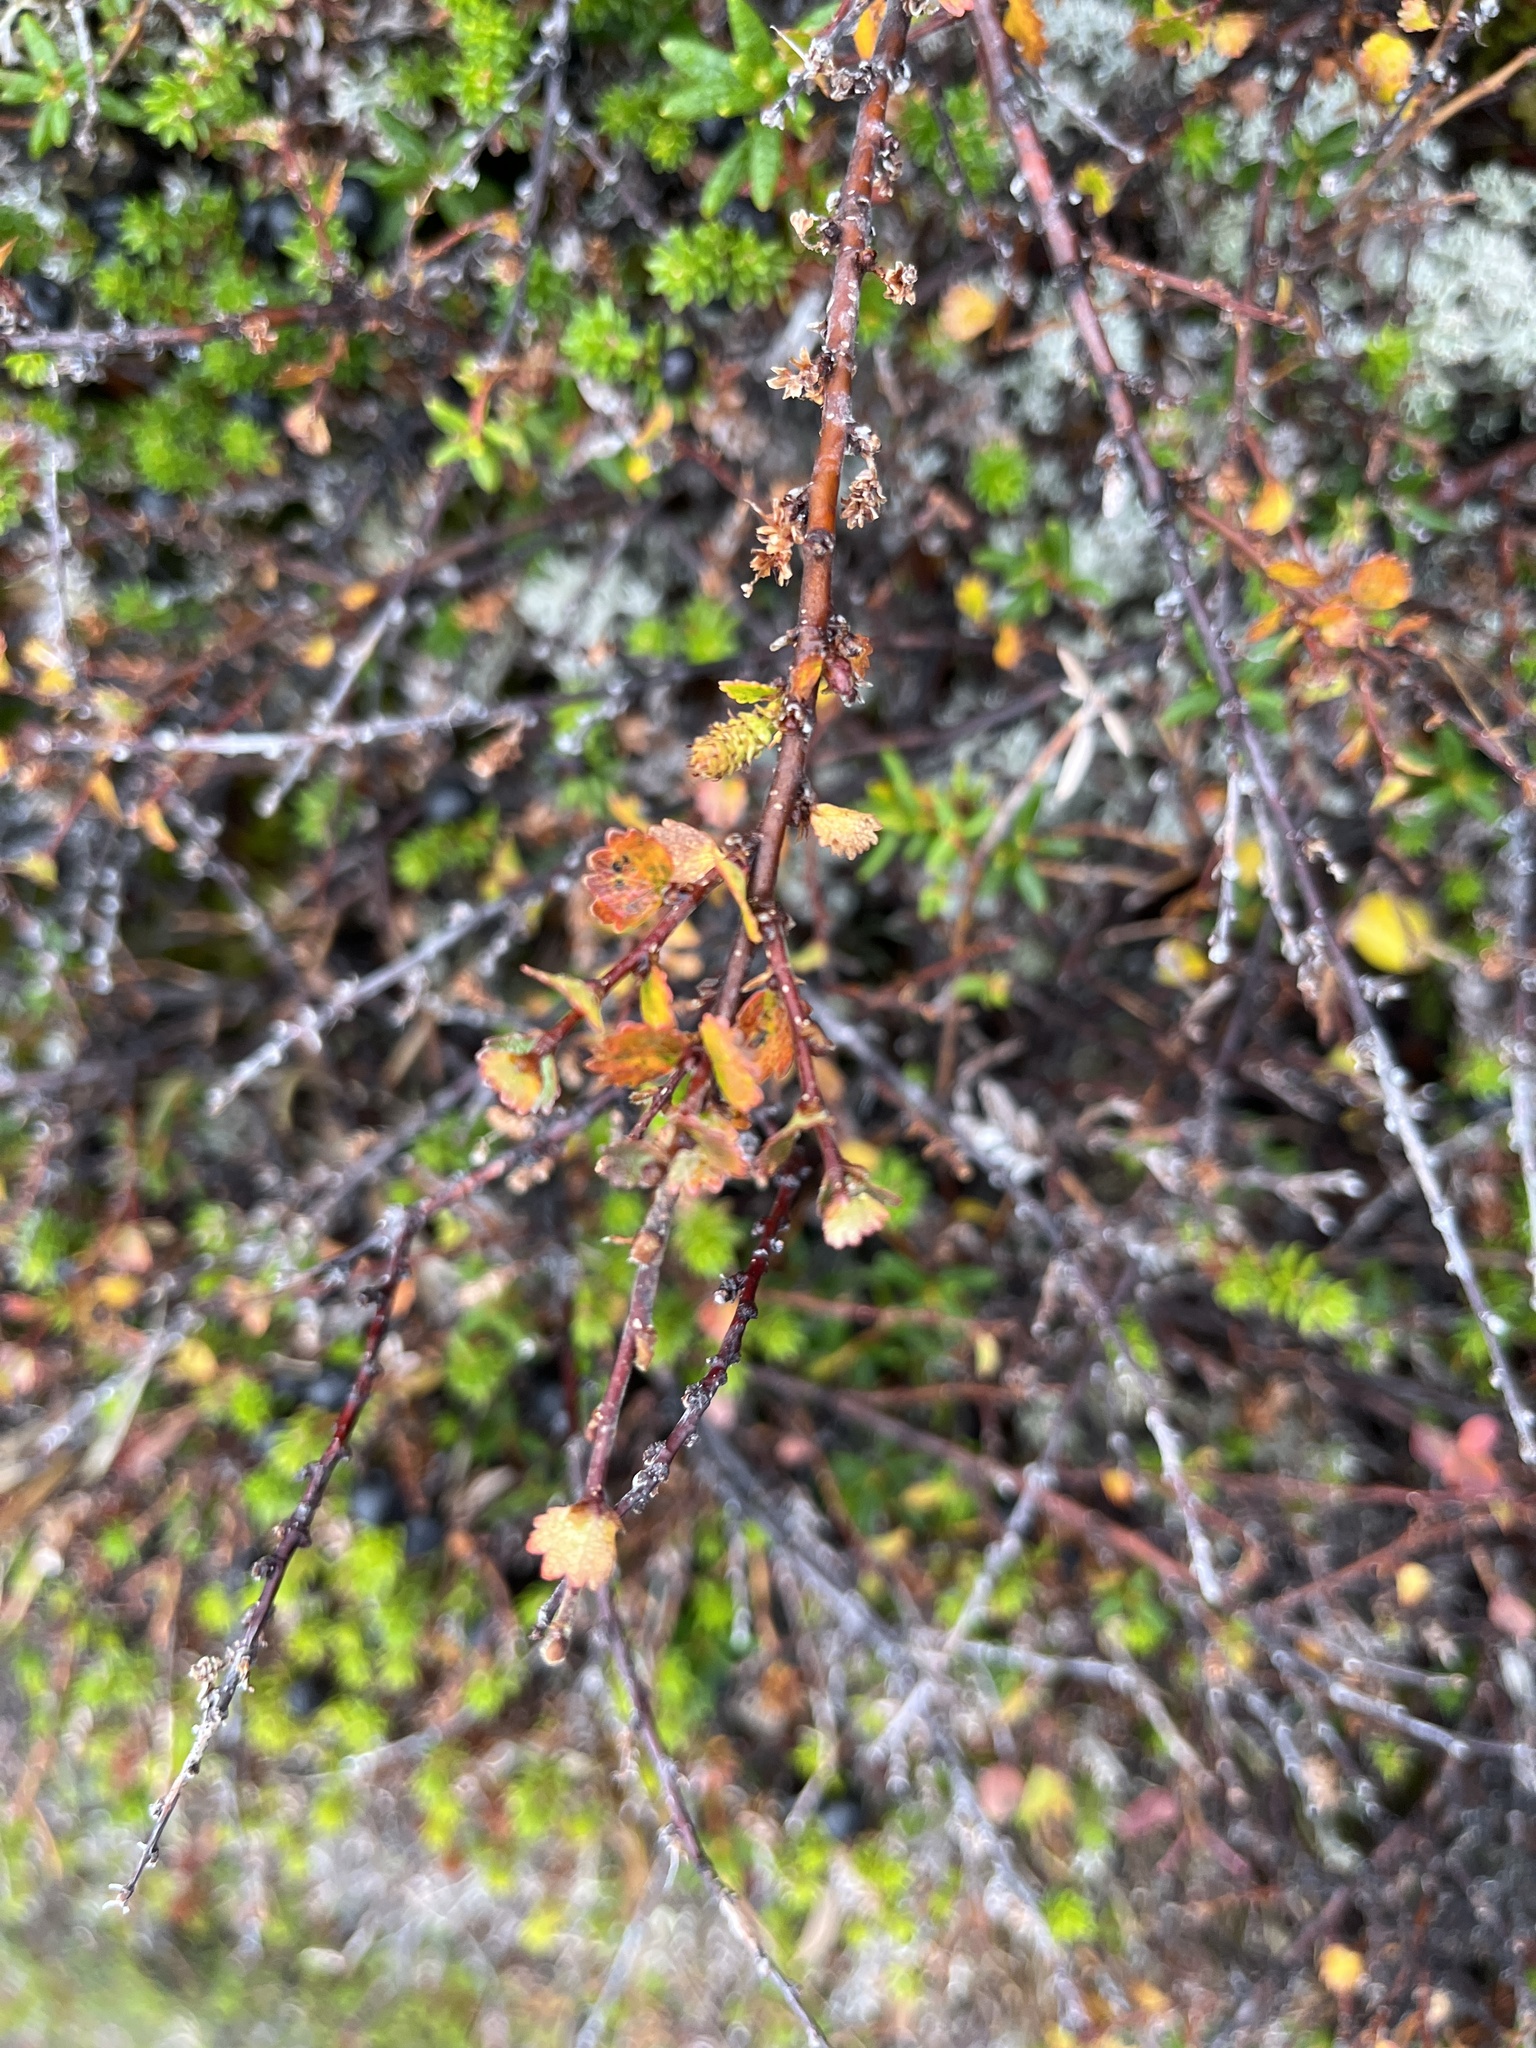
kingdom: Plantae
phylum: Tracheophyta
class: Magnoliopsida
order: Fagales
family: Betulaceae
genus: Betula
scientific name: Betula nana
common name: Arctic dwarf birch
